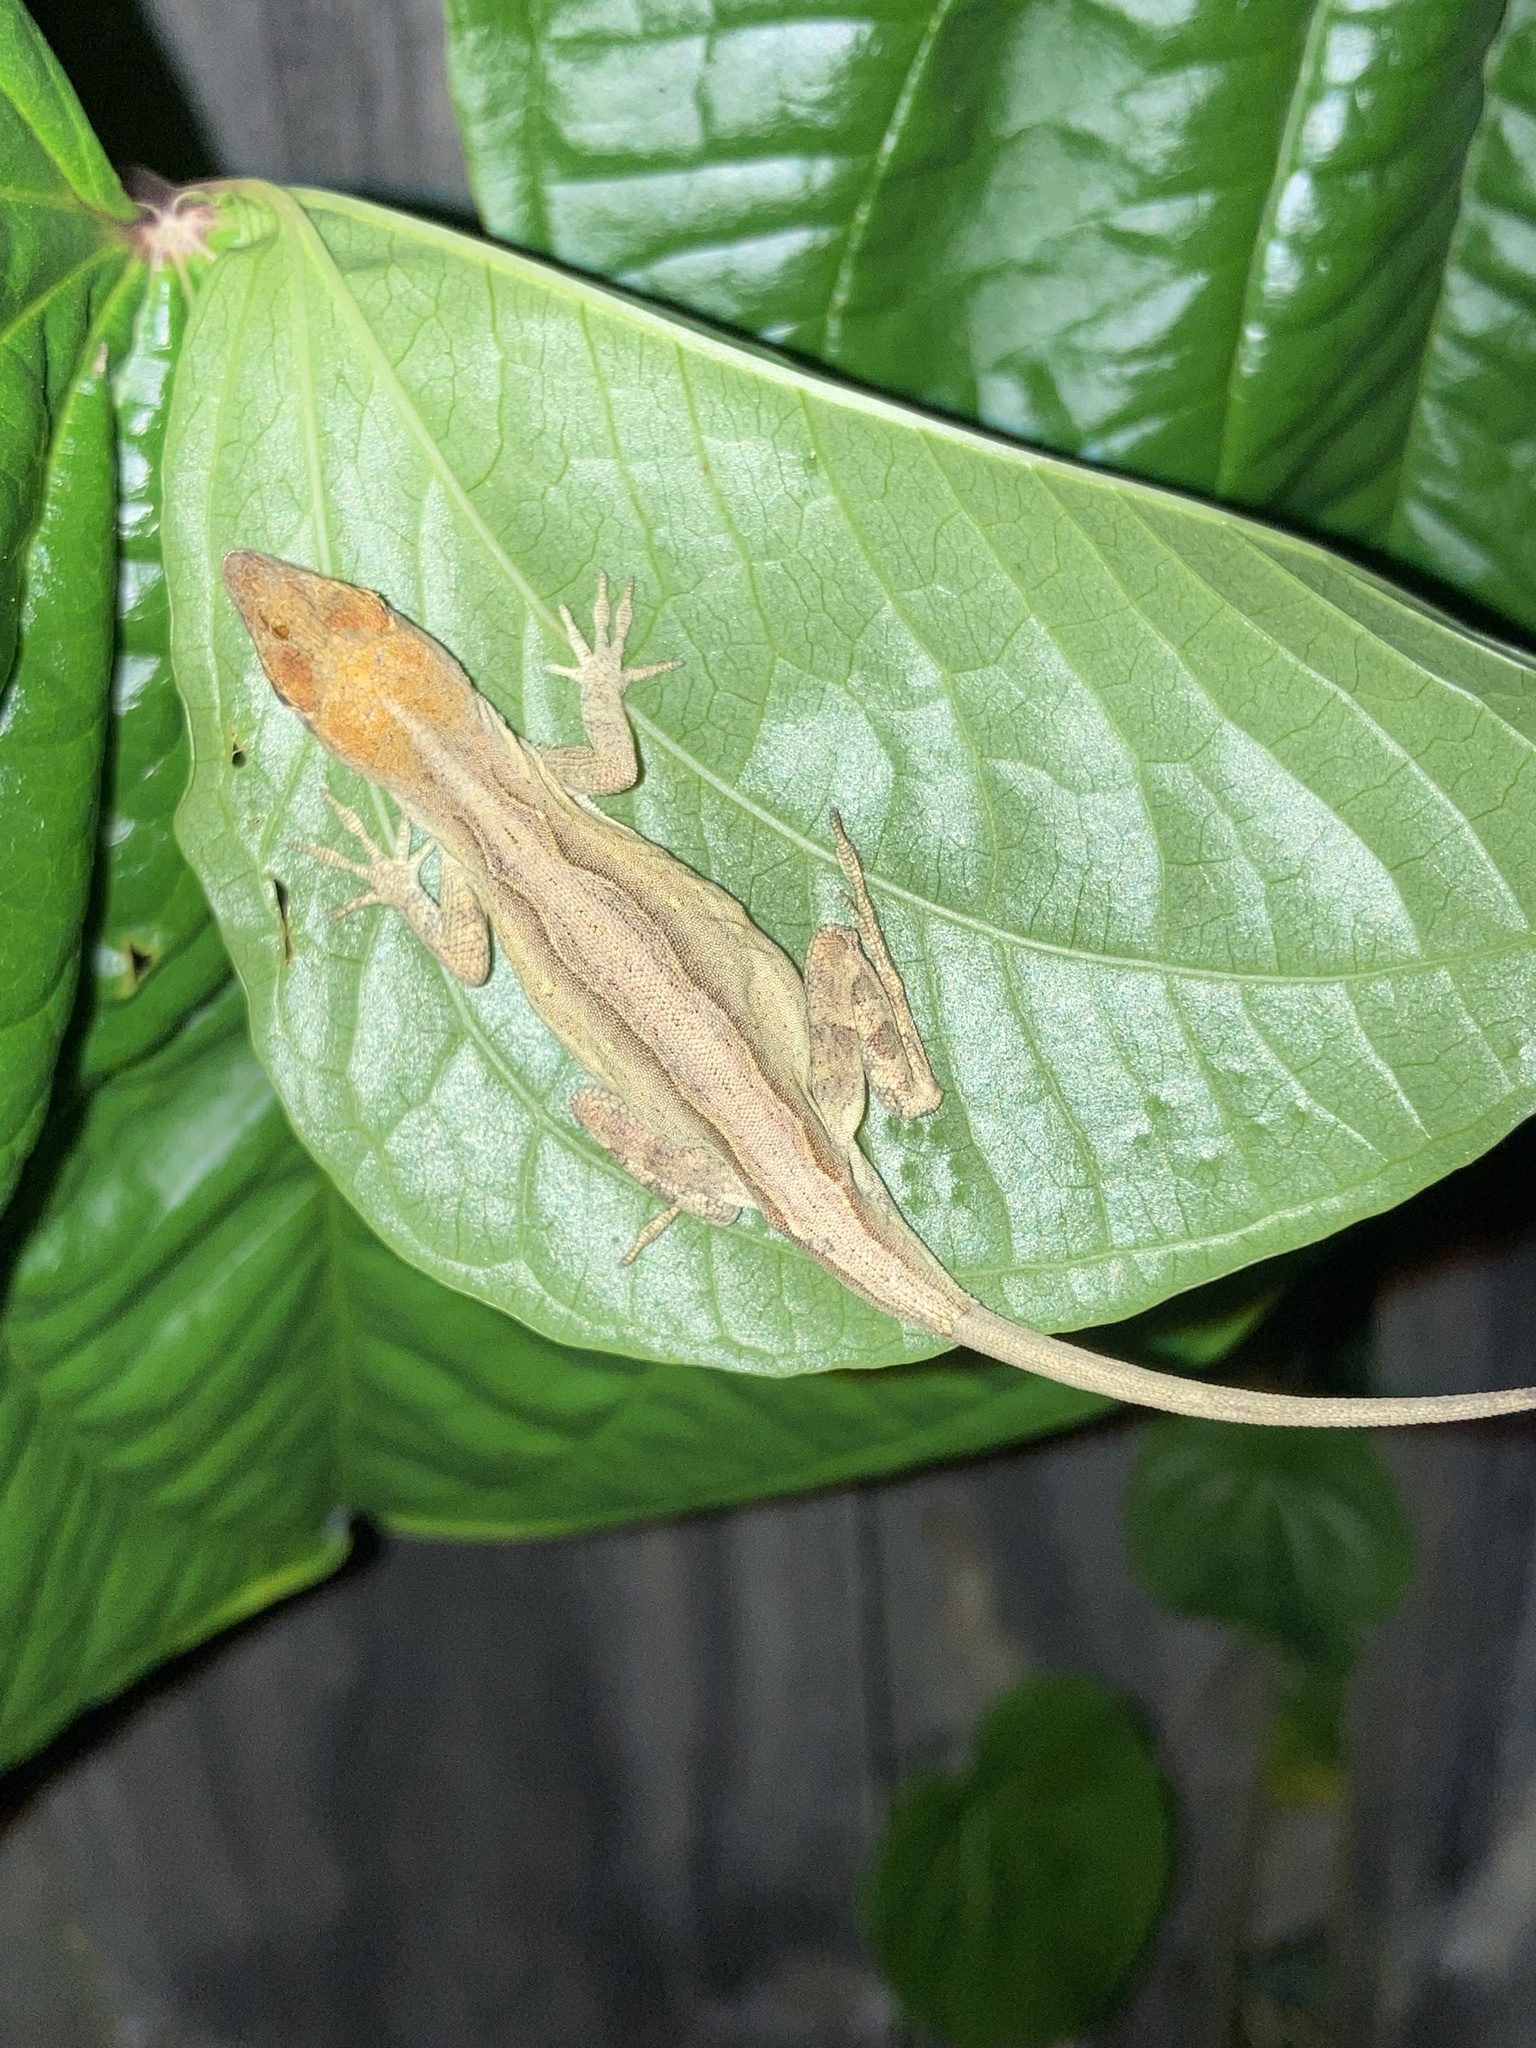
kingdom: Animalia
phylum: Chordata
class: Squamata
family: Dactyloidae
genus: Anolis
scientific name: Anolis sagrei
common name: Brown anole
